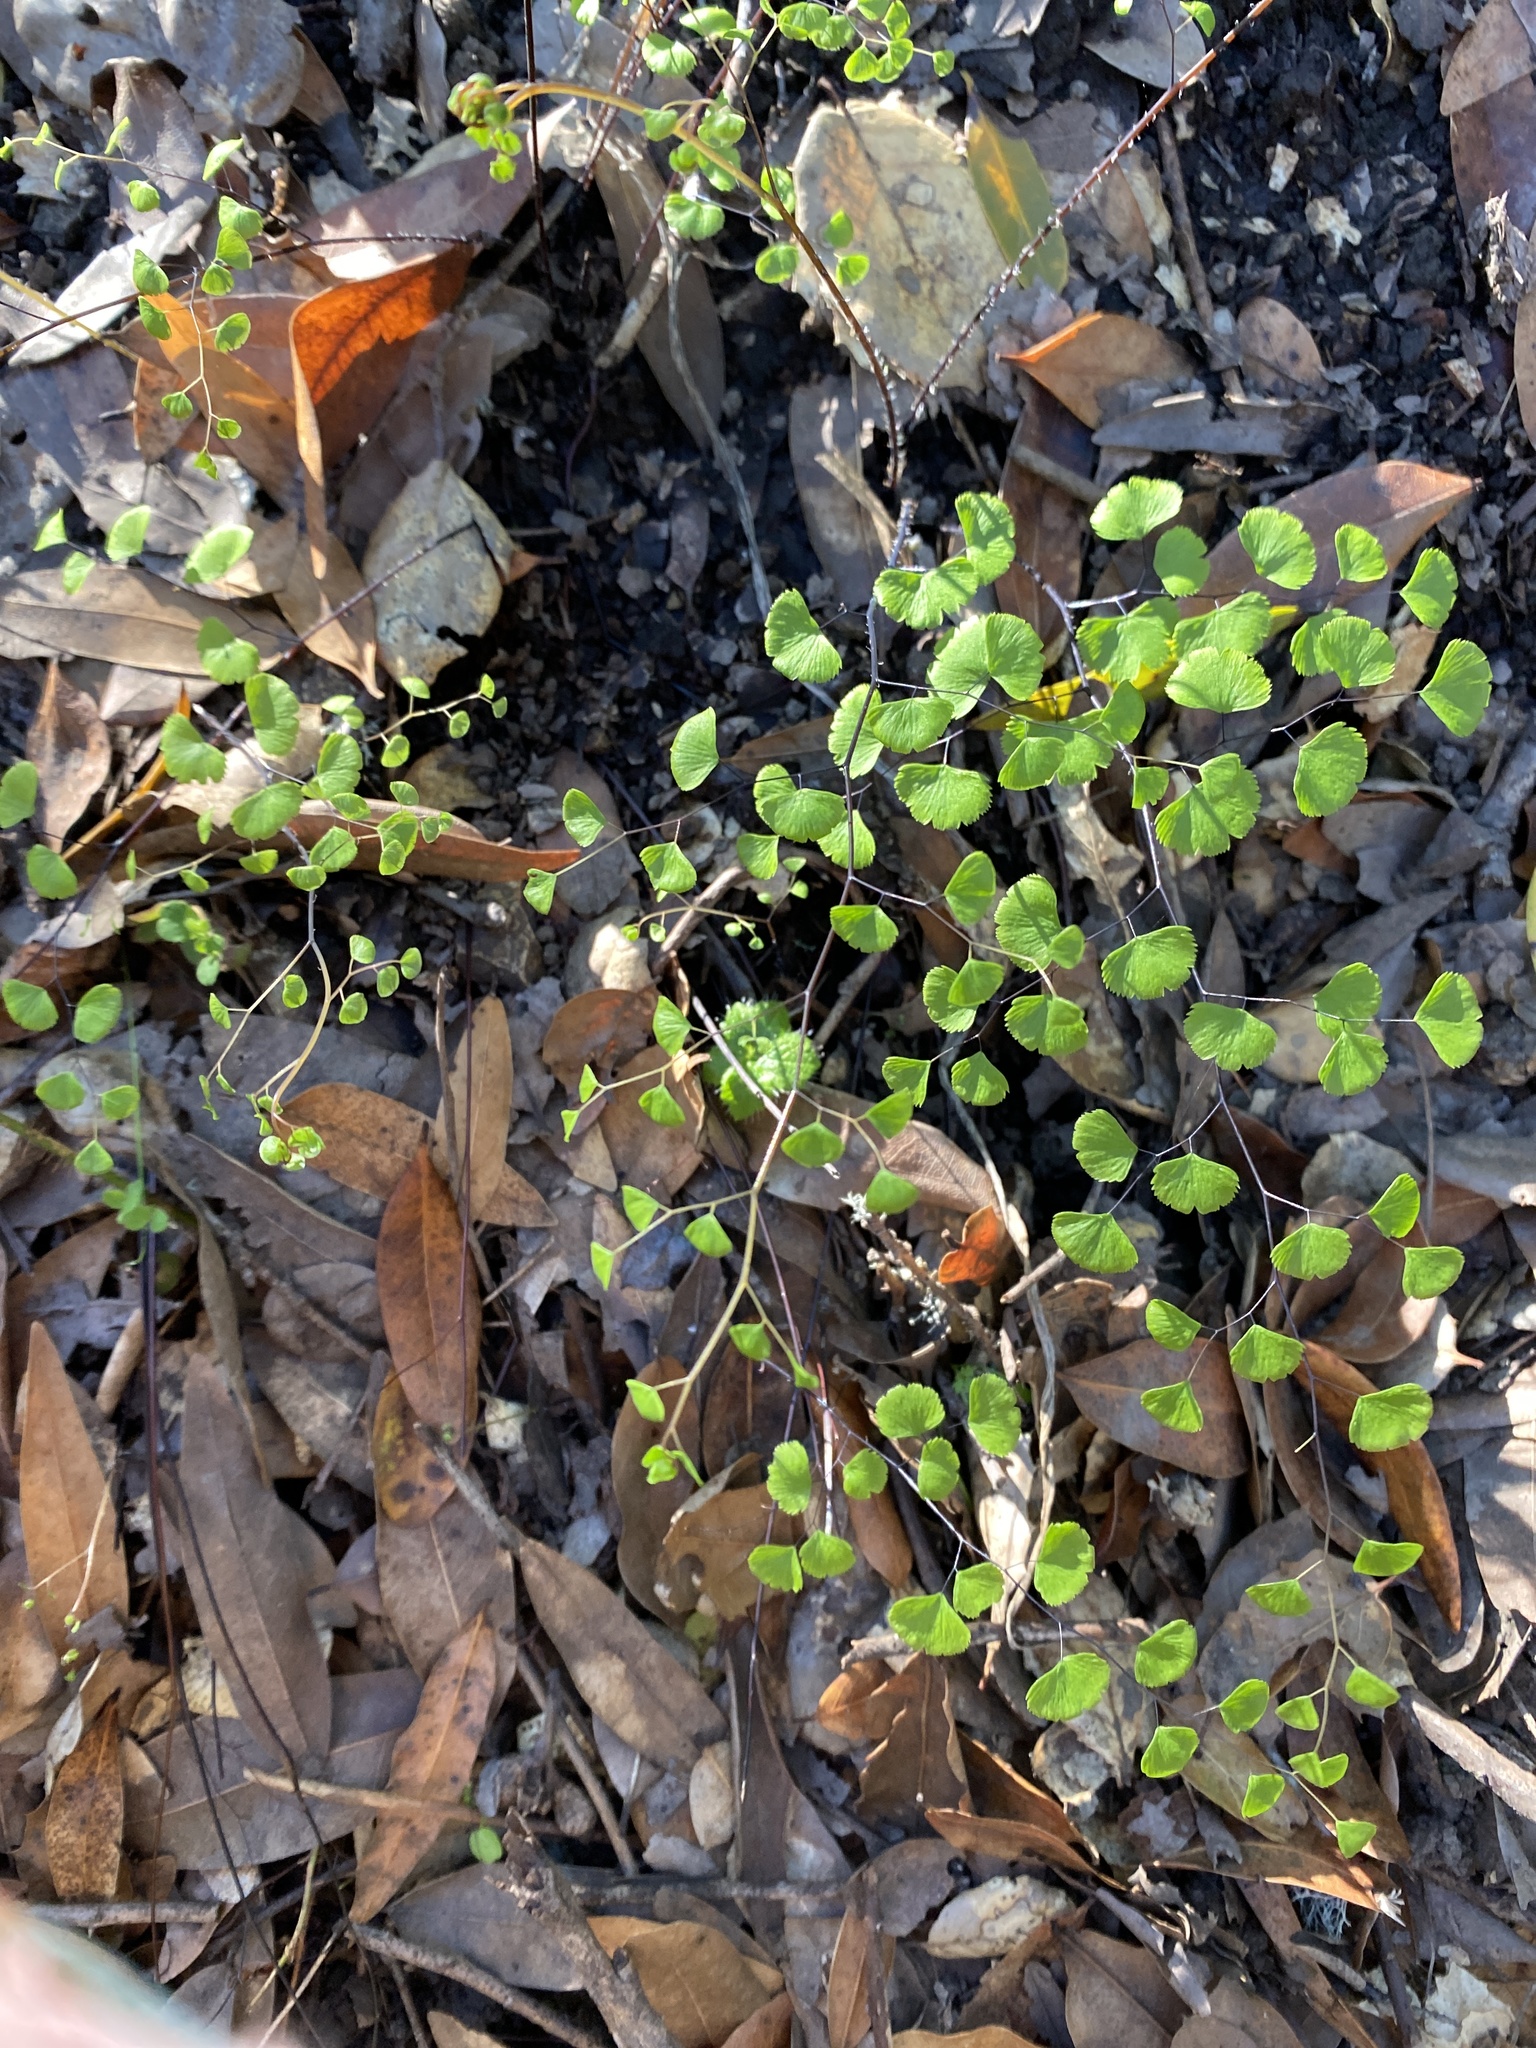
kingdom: Plantae
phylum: Tracheophyta
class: Polypodiopsida
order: Polypodiales
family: Pteridaceae
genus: Adiantum
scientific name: Adiantum jordanii
